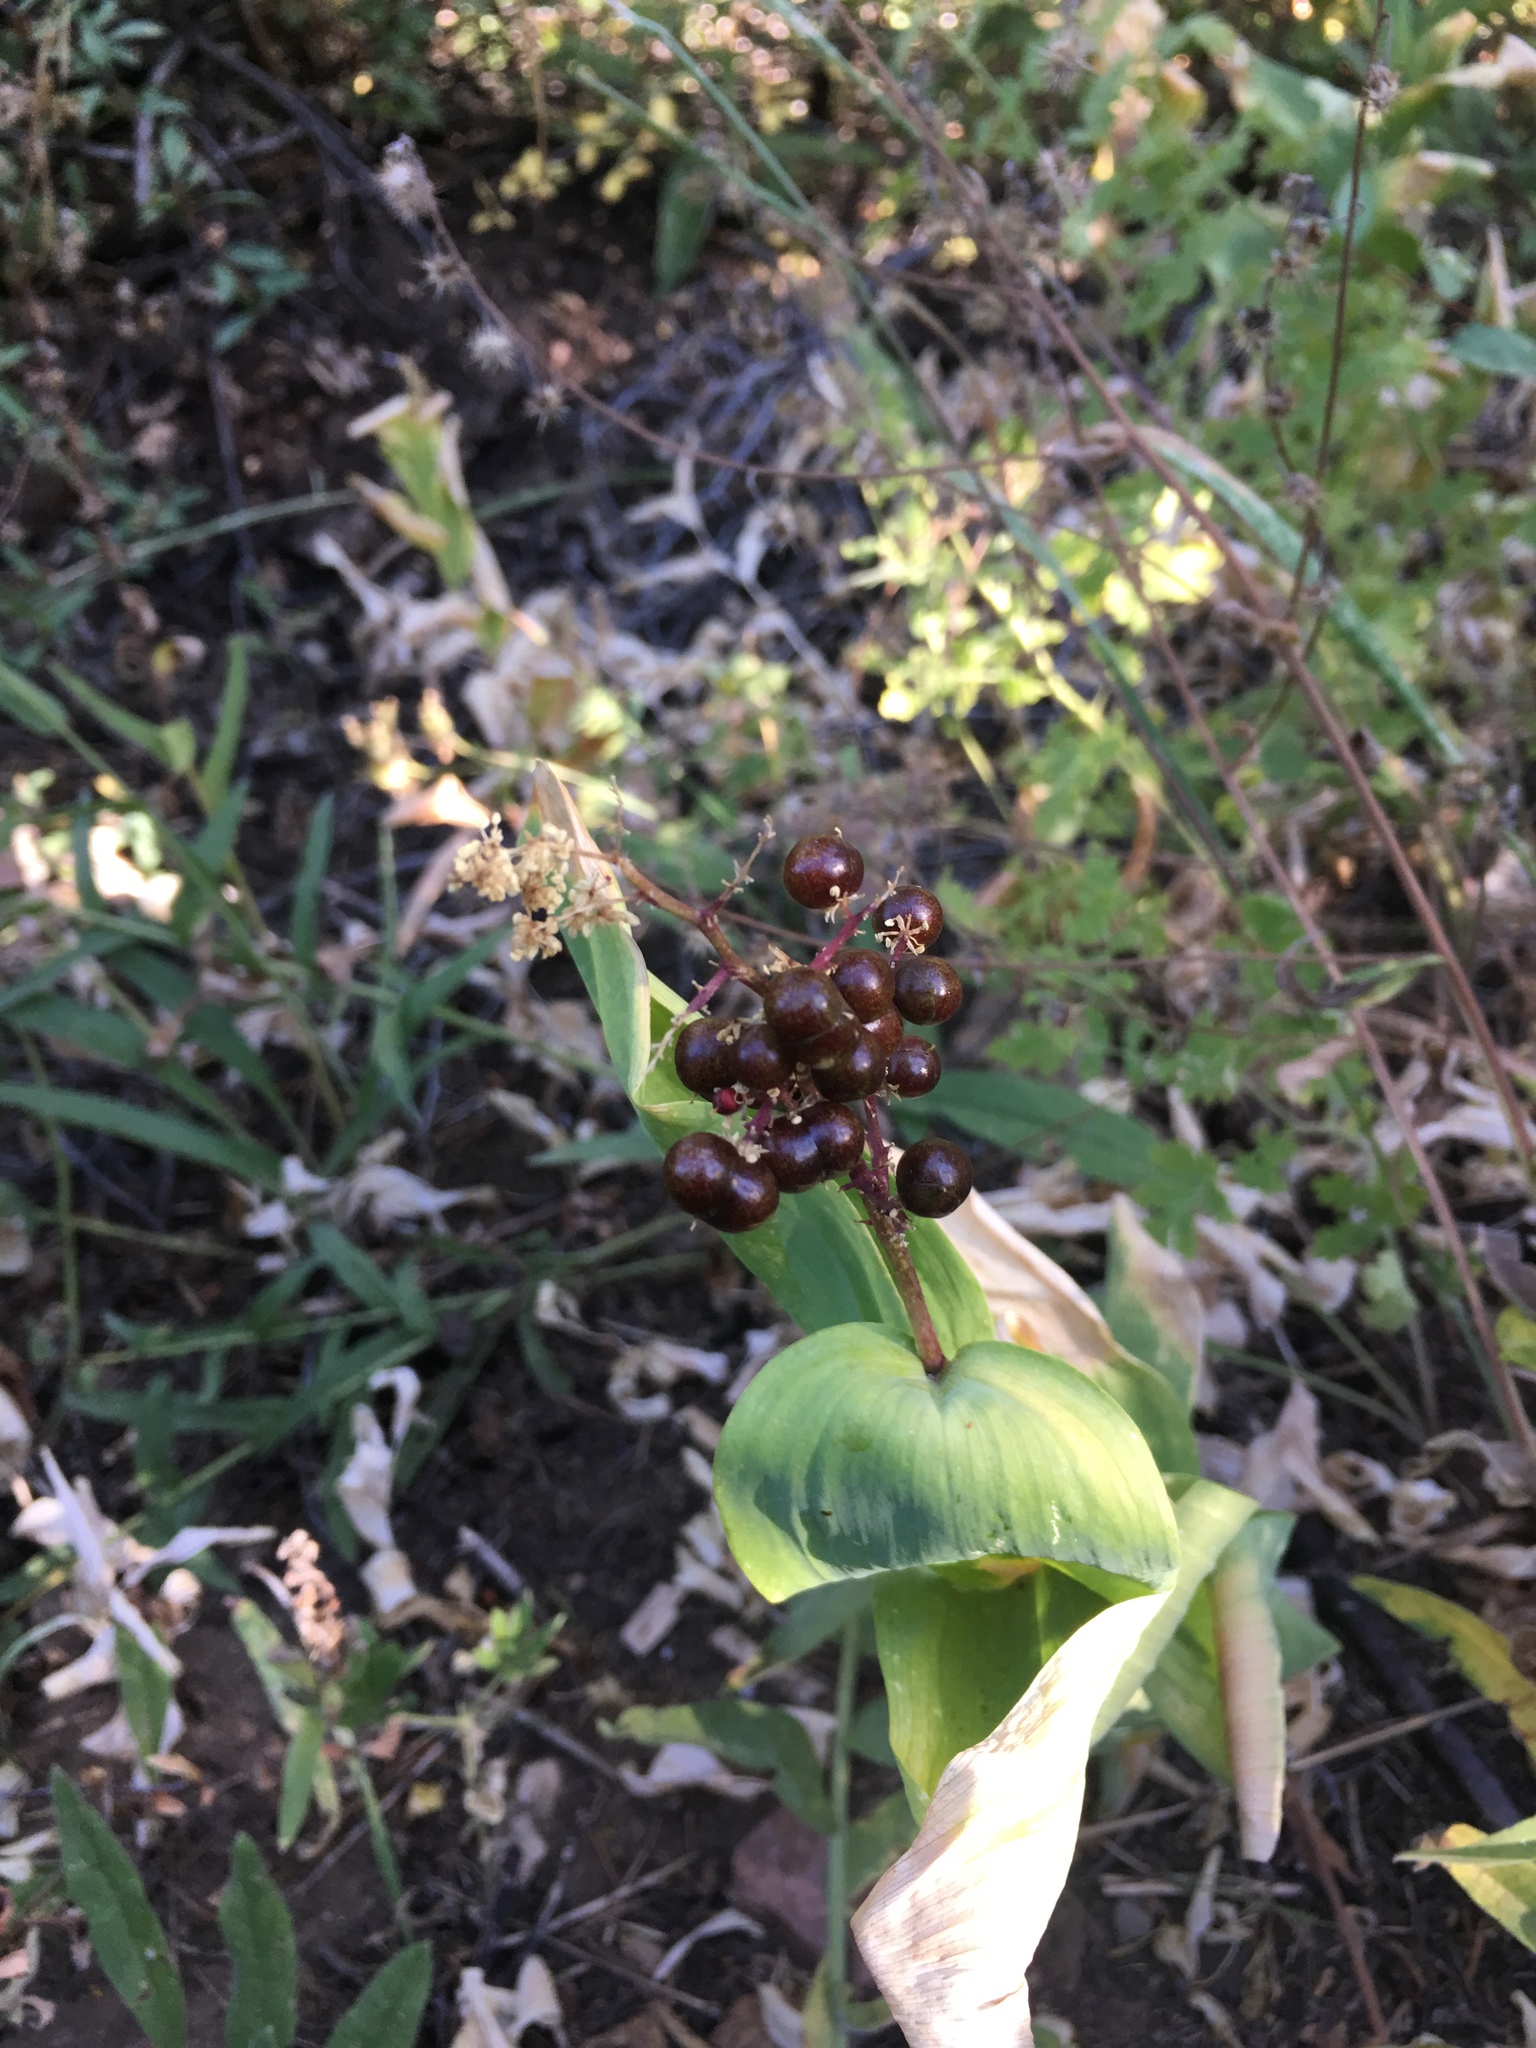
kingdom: Plantae
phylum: Tracheophyta
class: Liliopsida
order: Asparagales
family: Asparagaceae
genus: Maianthemum
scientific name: Maianthemum racemosum
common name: False spikenard
